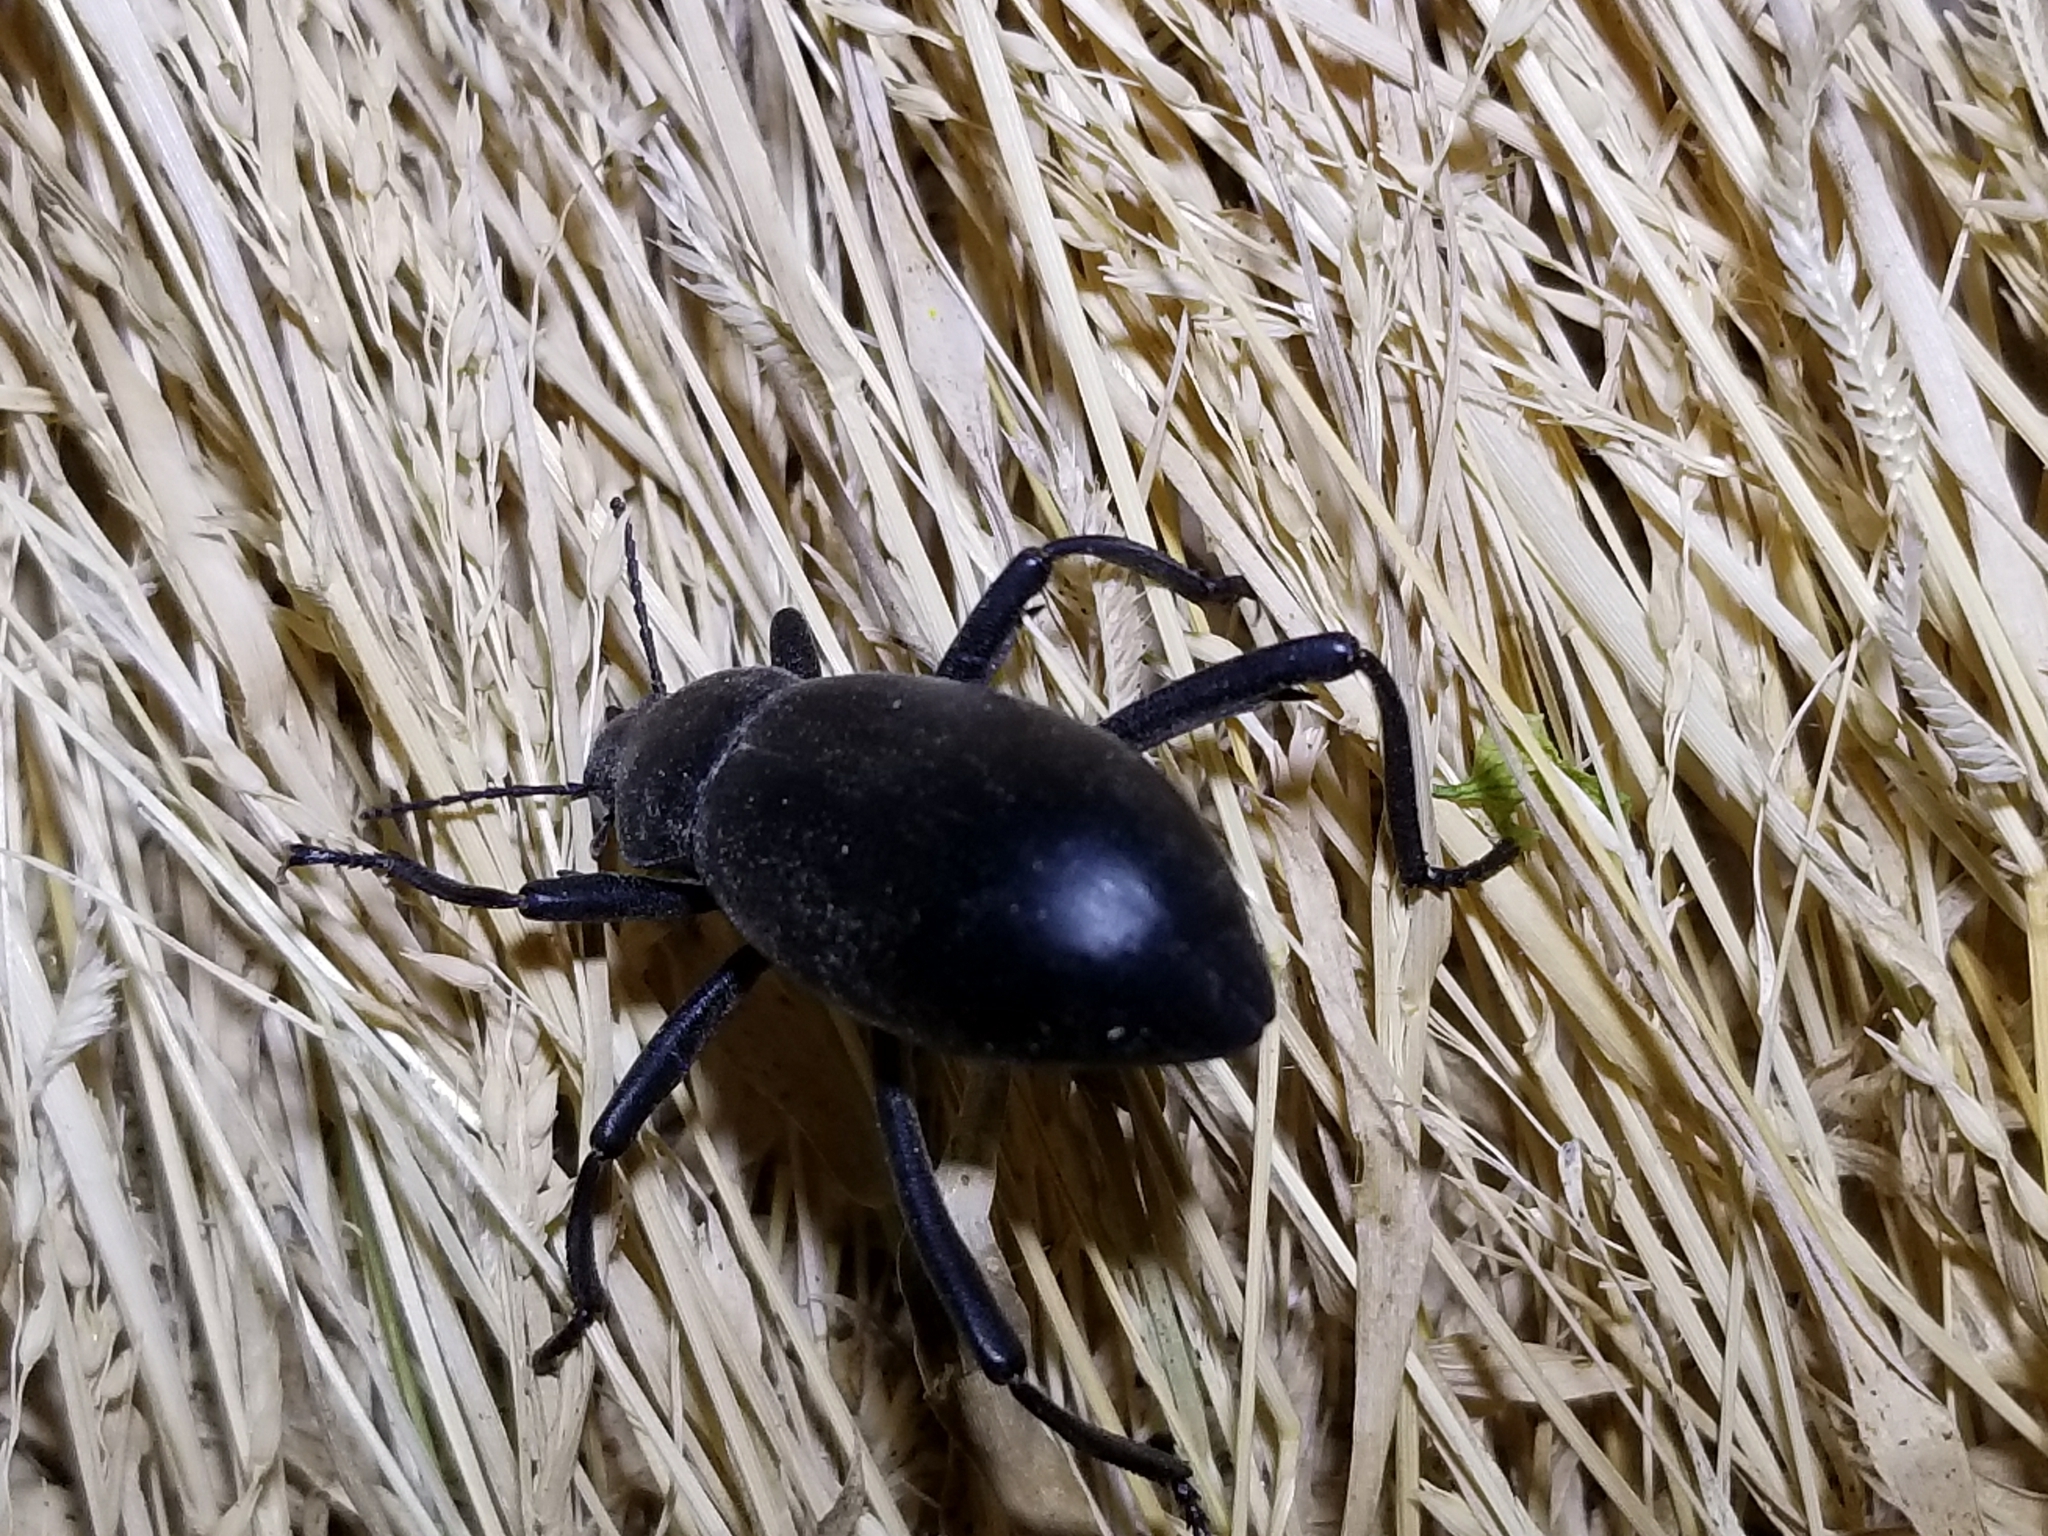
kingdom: Animalia
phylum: Arthropoda
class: Insecta
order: Coleoptera
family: Tenebrionidae
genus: Eleodes
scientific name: Eleodes armata
